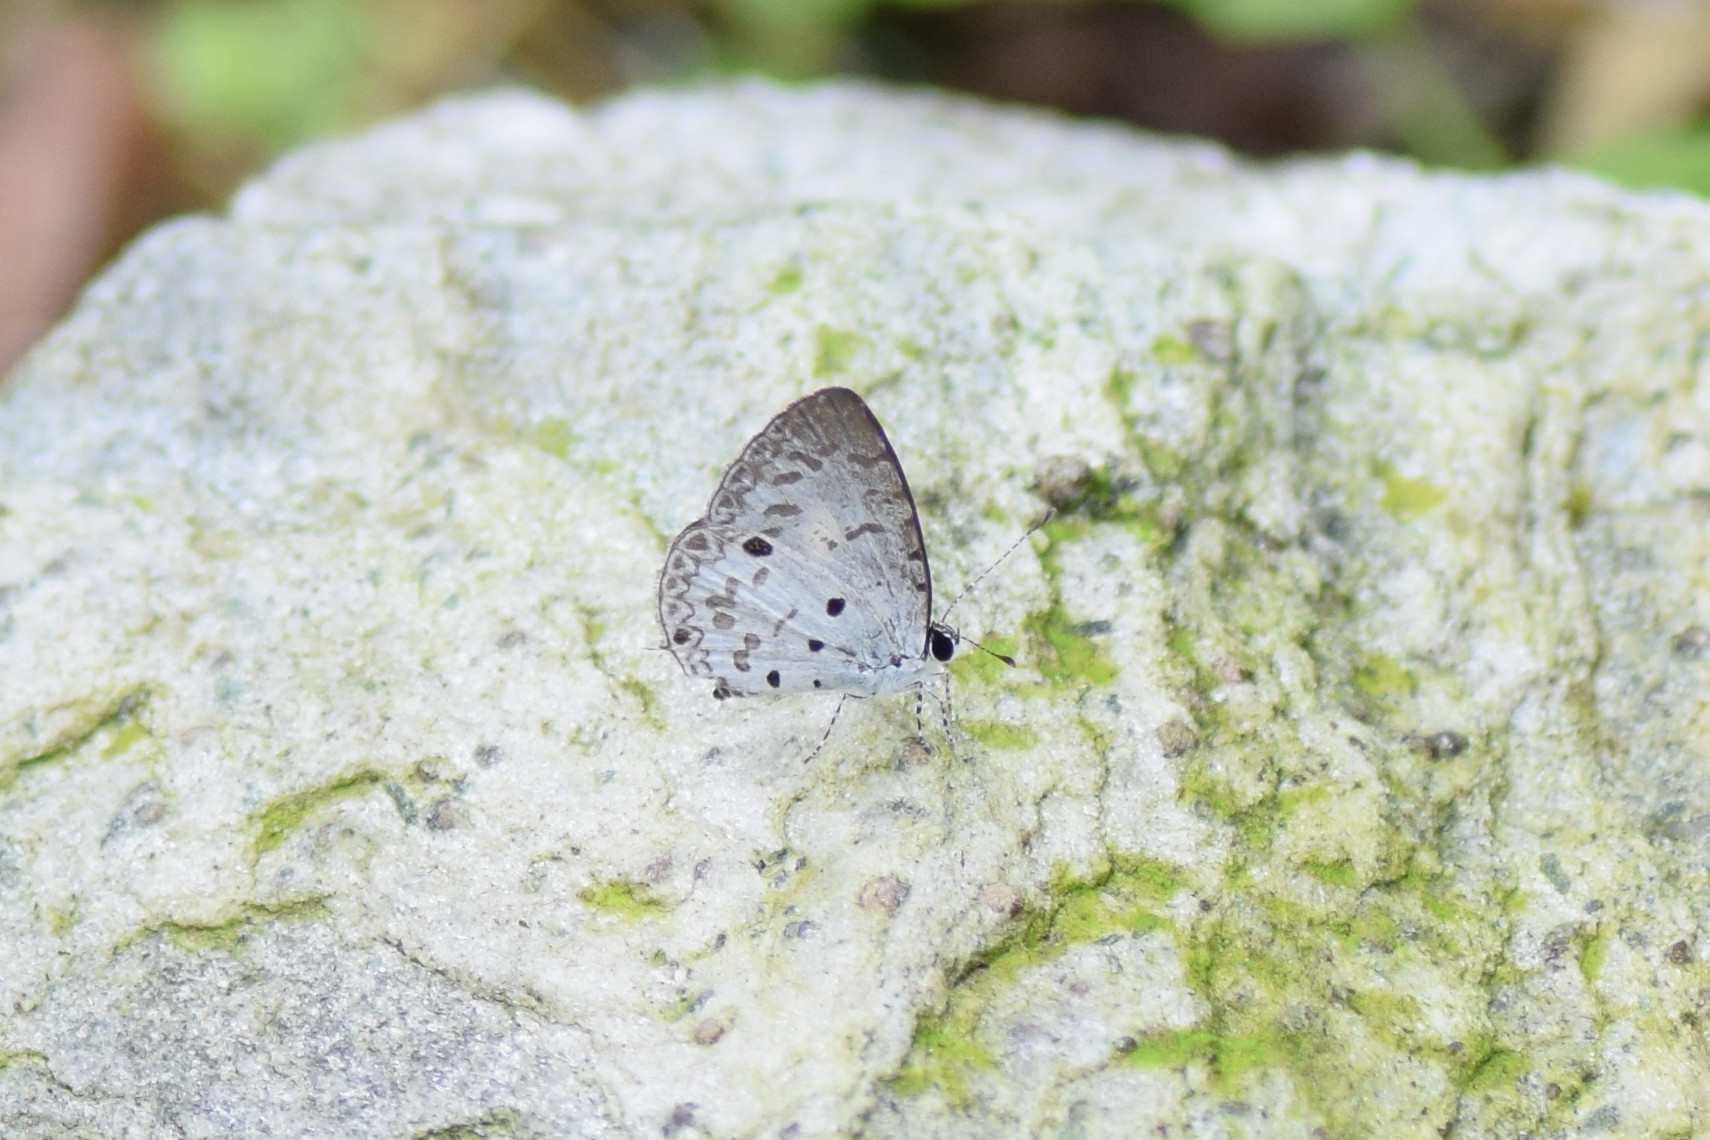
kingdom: Animalia
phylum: Arthropoda
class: Insecta
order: Lepidoptera
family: Lycaenidae
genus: Megisba
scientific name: Megisba malaya
